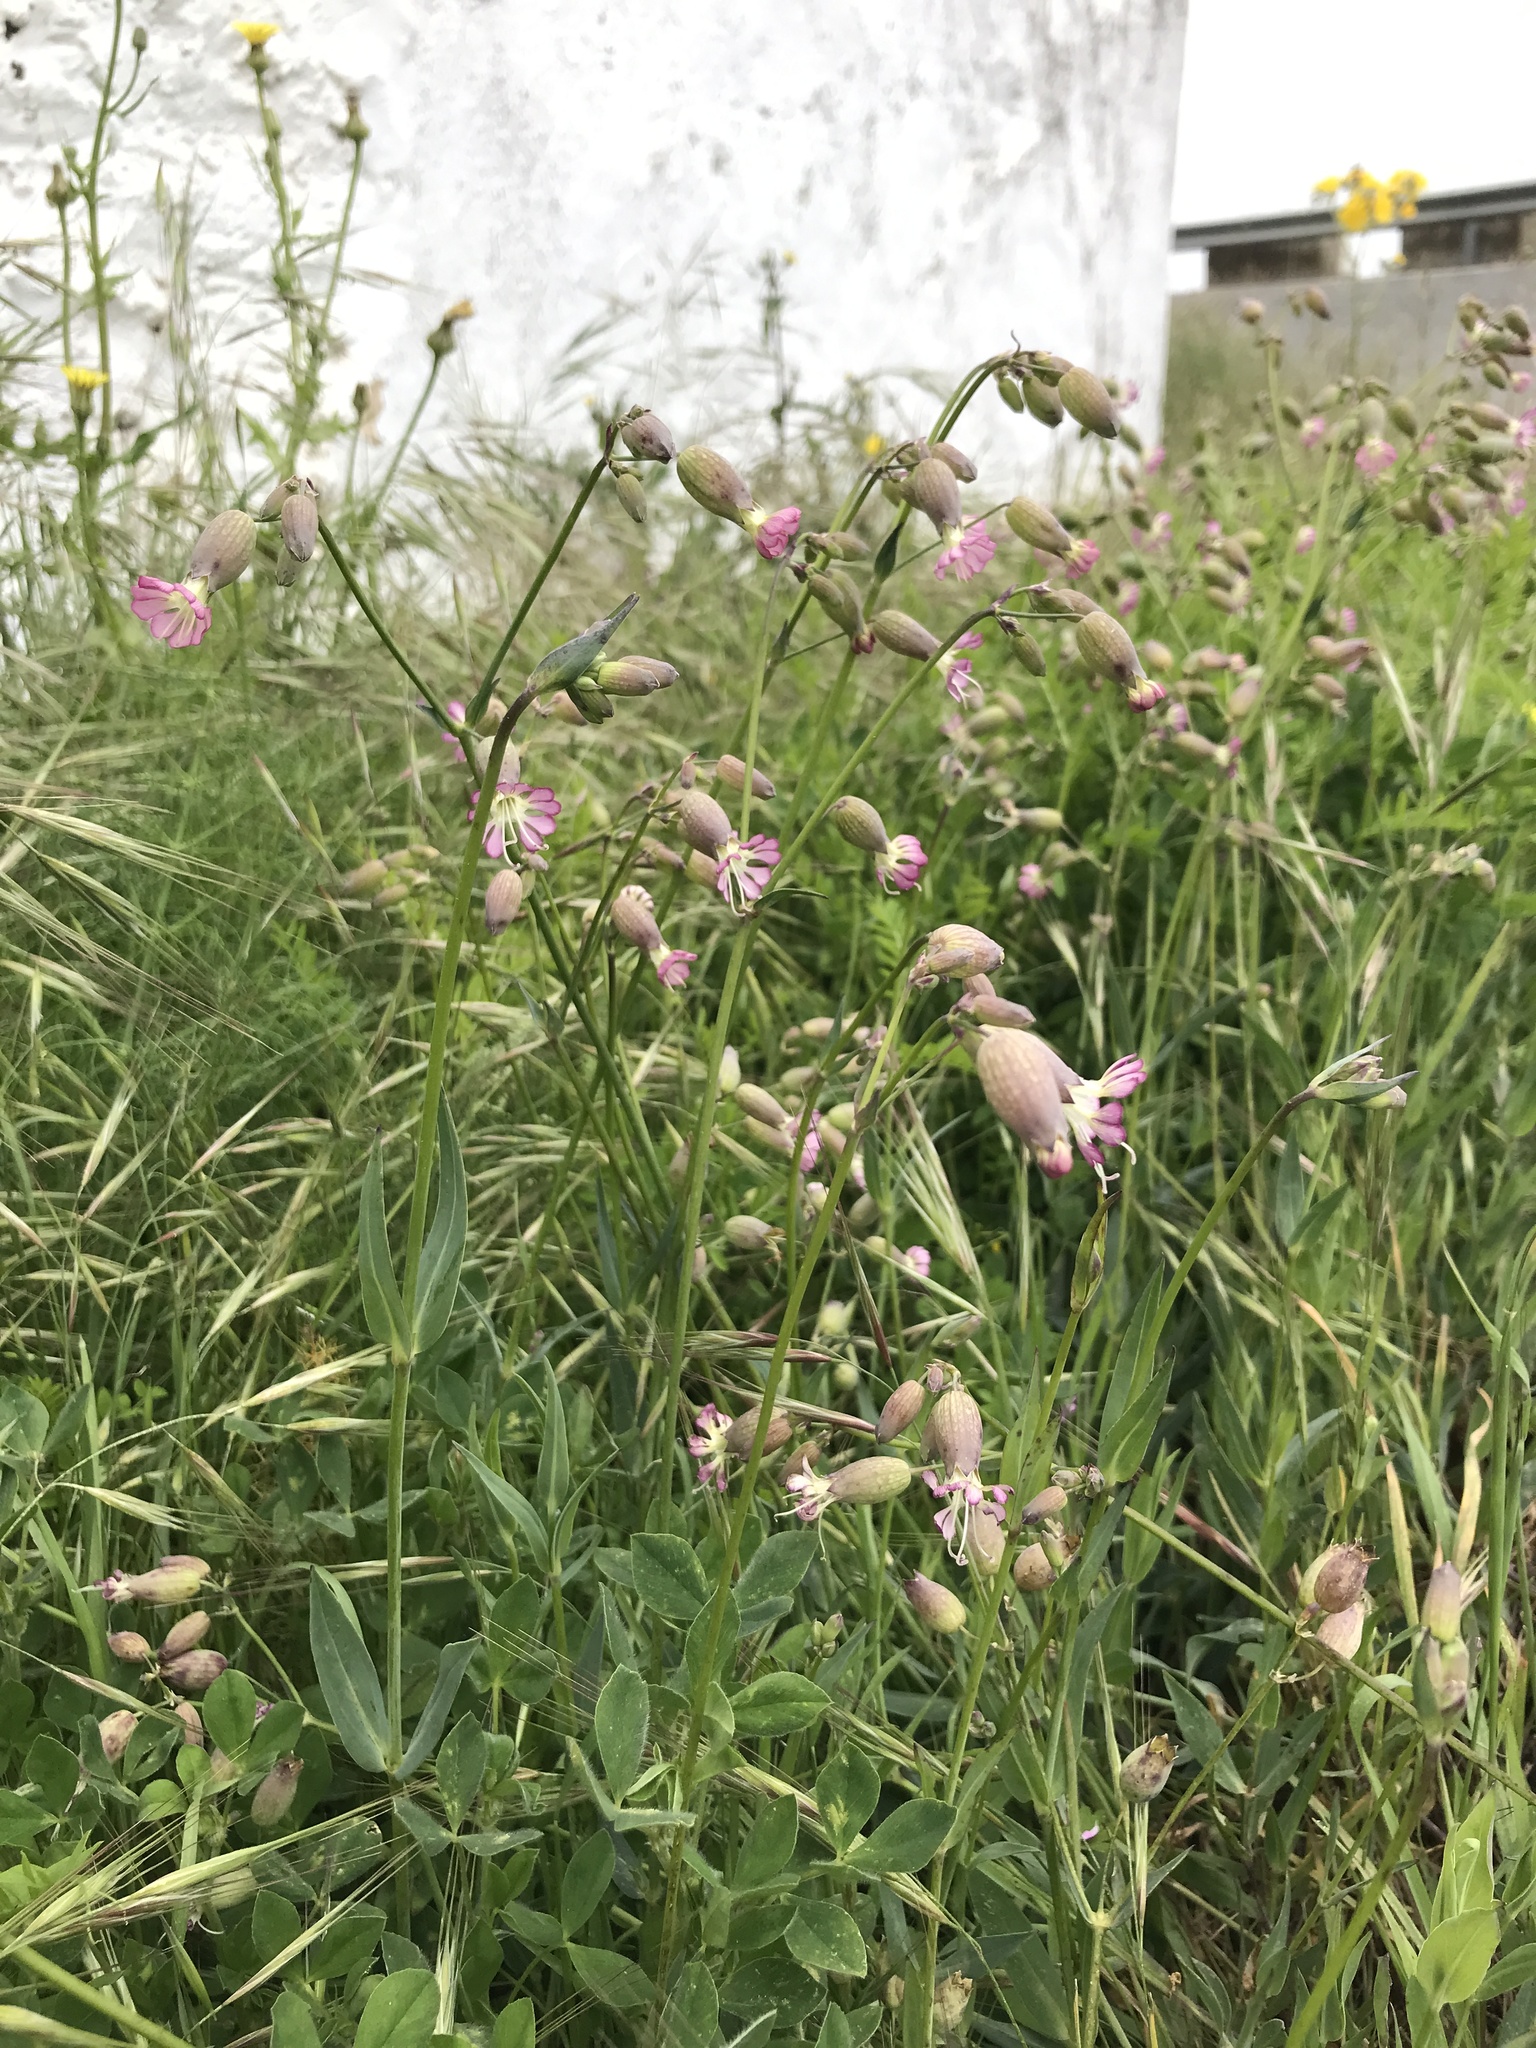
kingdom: Plantae
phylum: Tracheophyta
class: Magnoliopsida
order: Caryophyllales
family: Caryophyllaceae
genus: Silene
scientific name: Silene vulgaris
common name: Bladder campion
